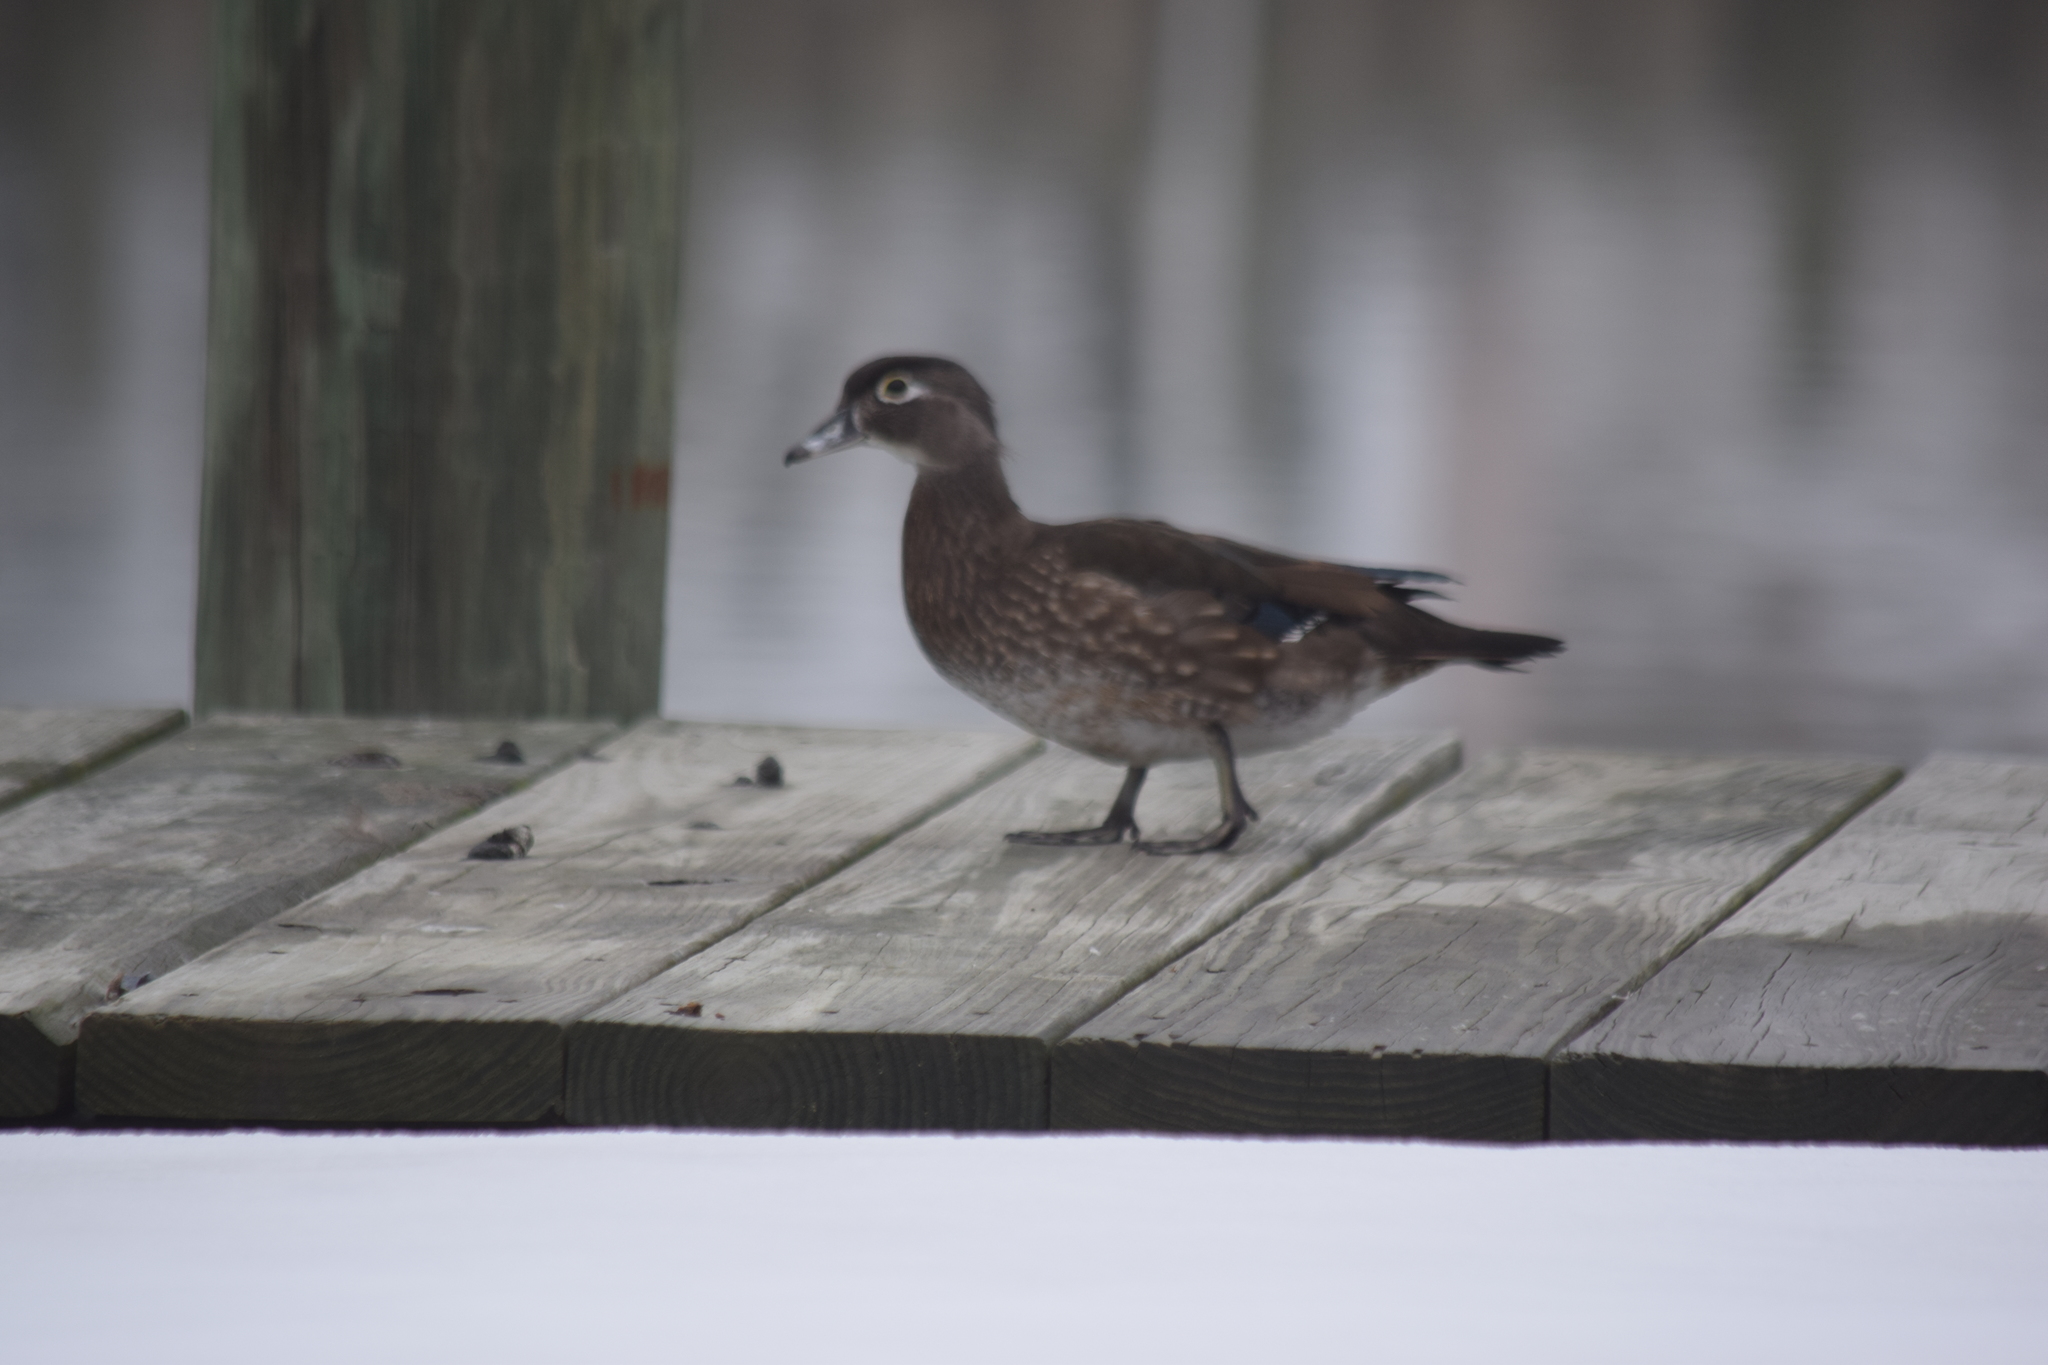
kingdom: Animalia
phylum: Chordata
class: Aves
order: Anseriformes
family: Anatidae
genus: Aix
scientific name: Aix sponsa
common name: Wood duck
